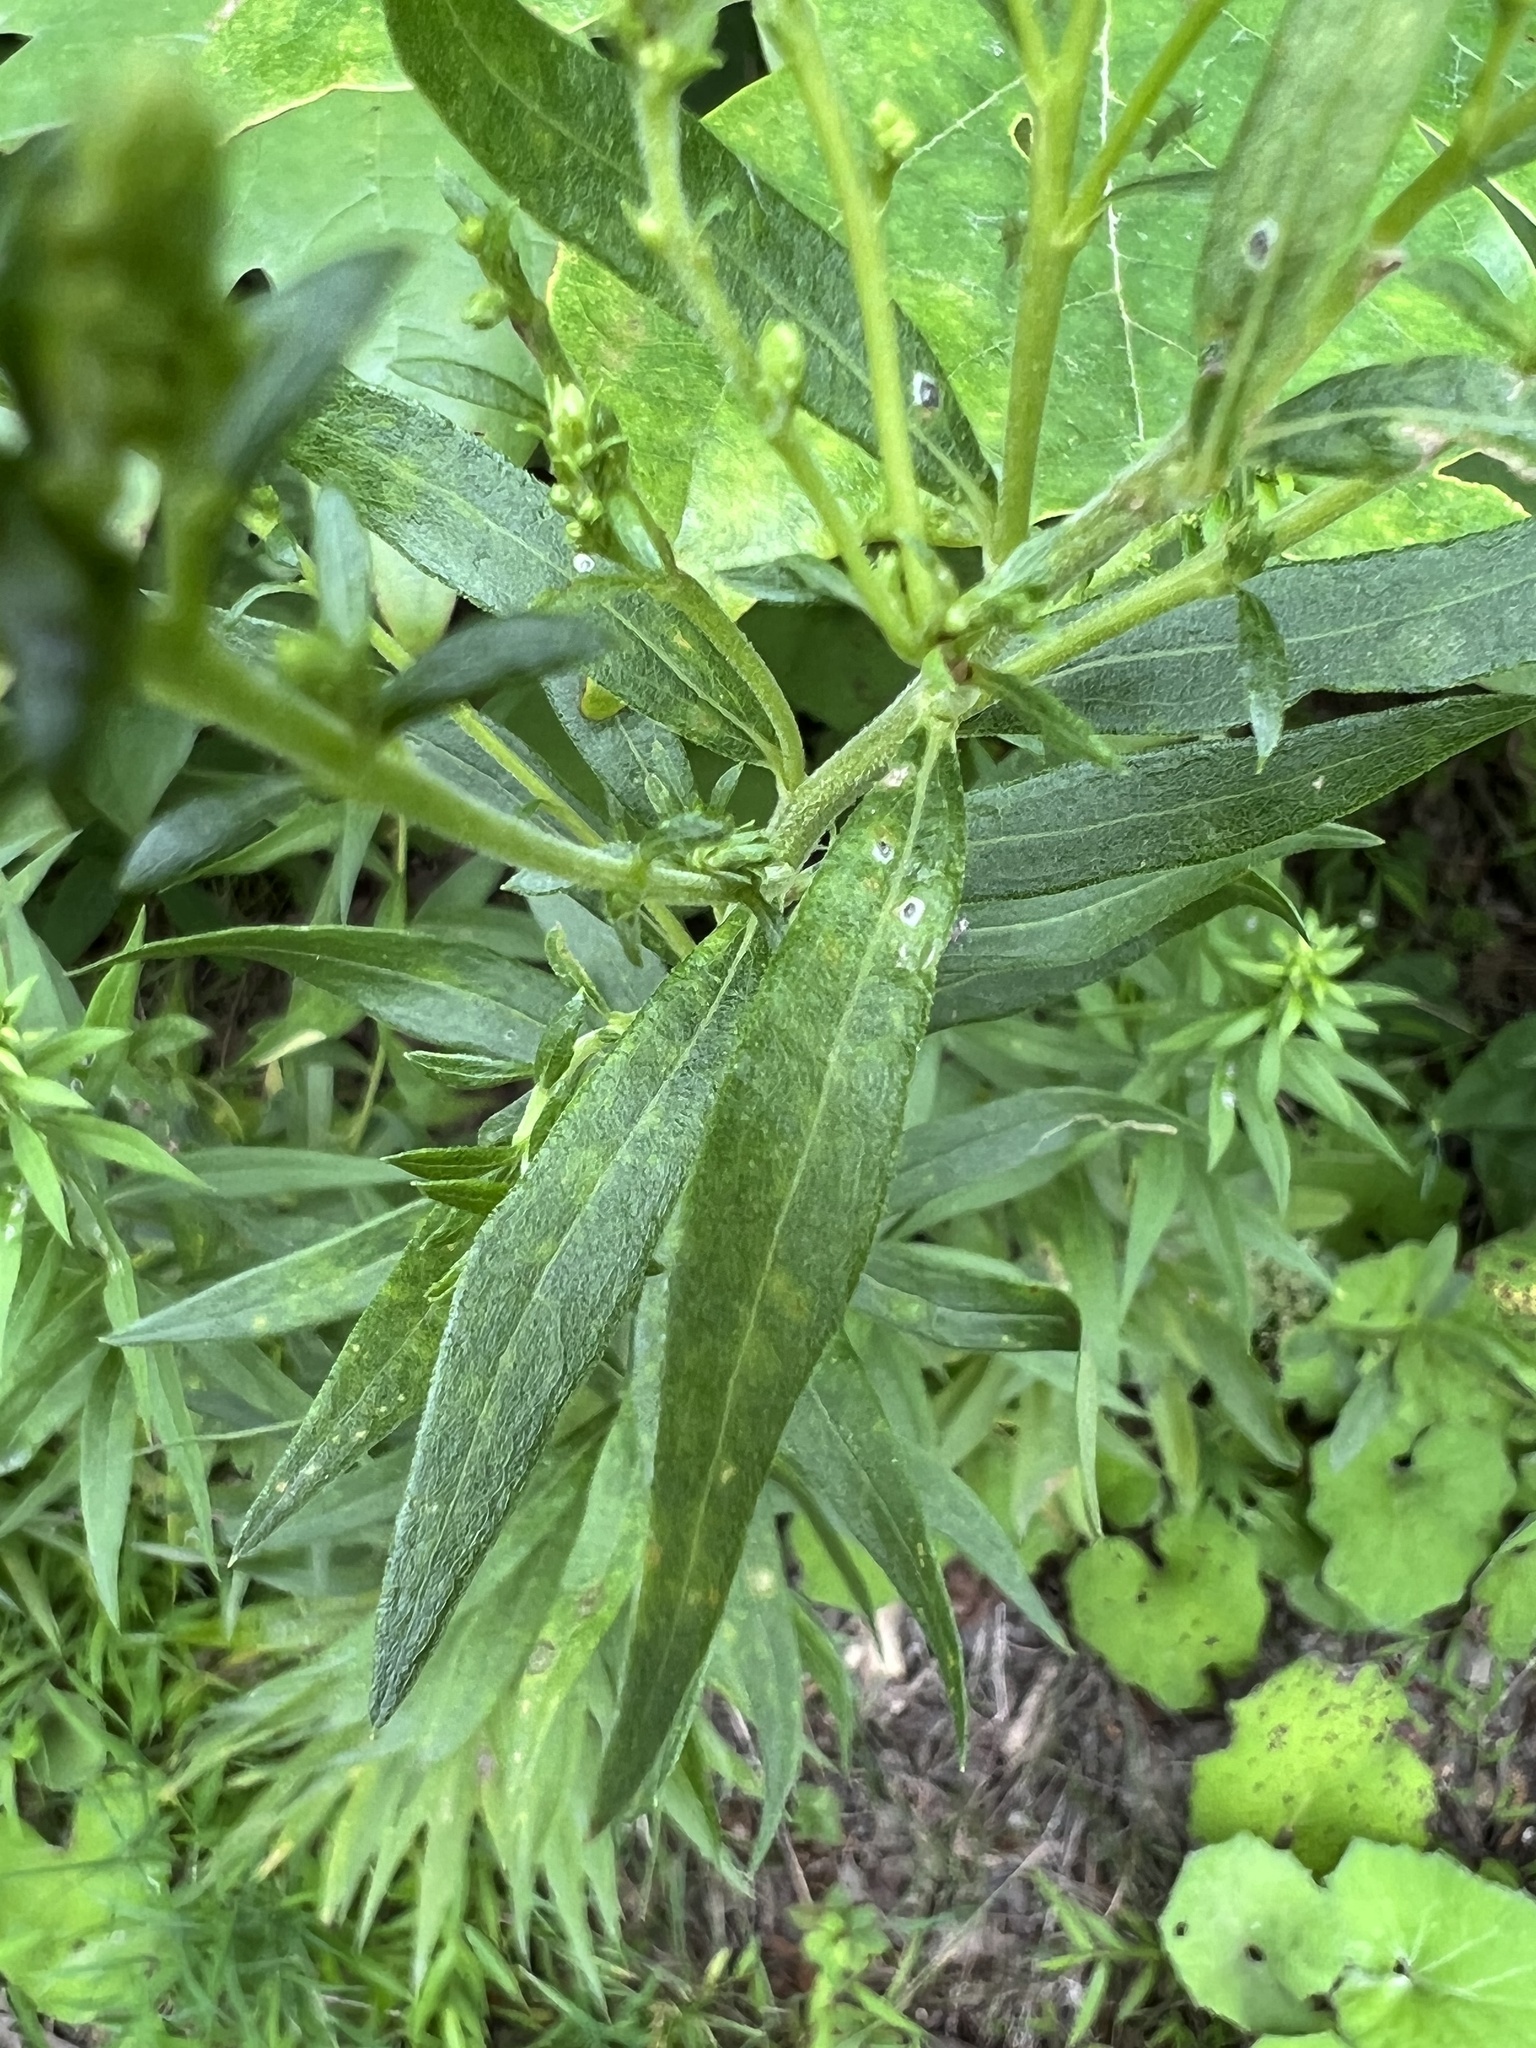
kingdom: Fungi
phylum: Basidiomycota
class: Pucciniomycetes
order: Pucciniales
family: Coleosporiaceae
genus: Coleosporium
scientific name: Coleosporium asterum
